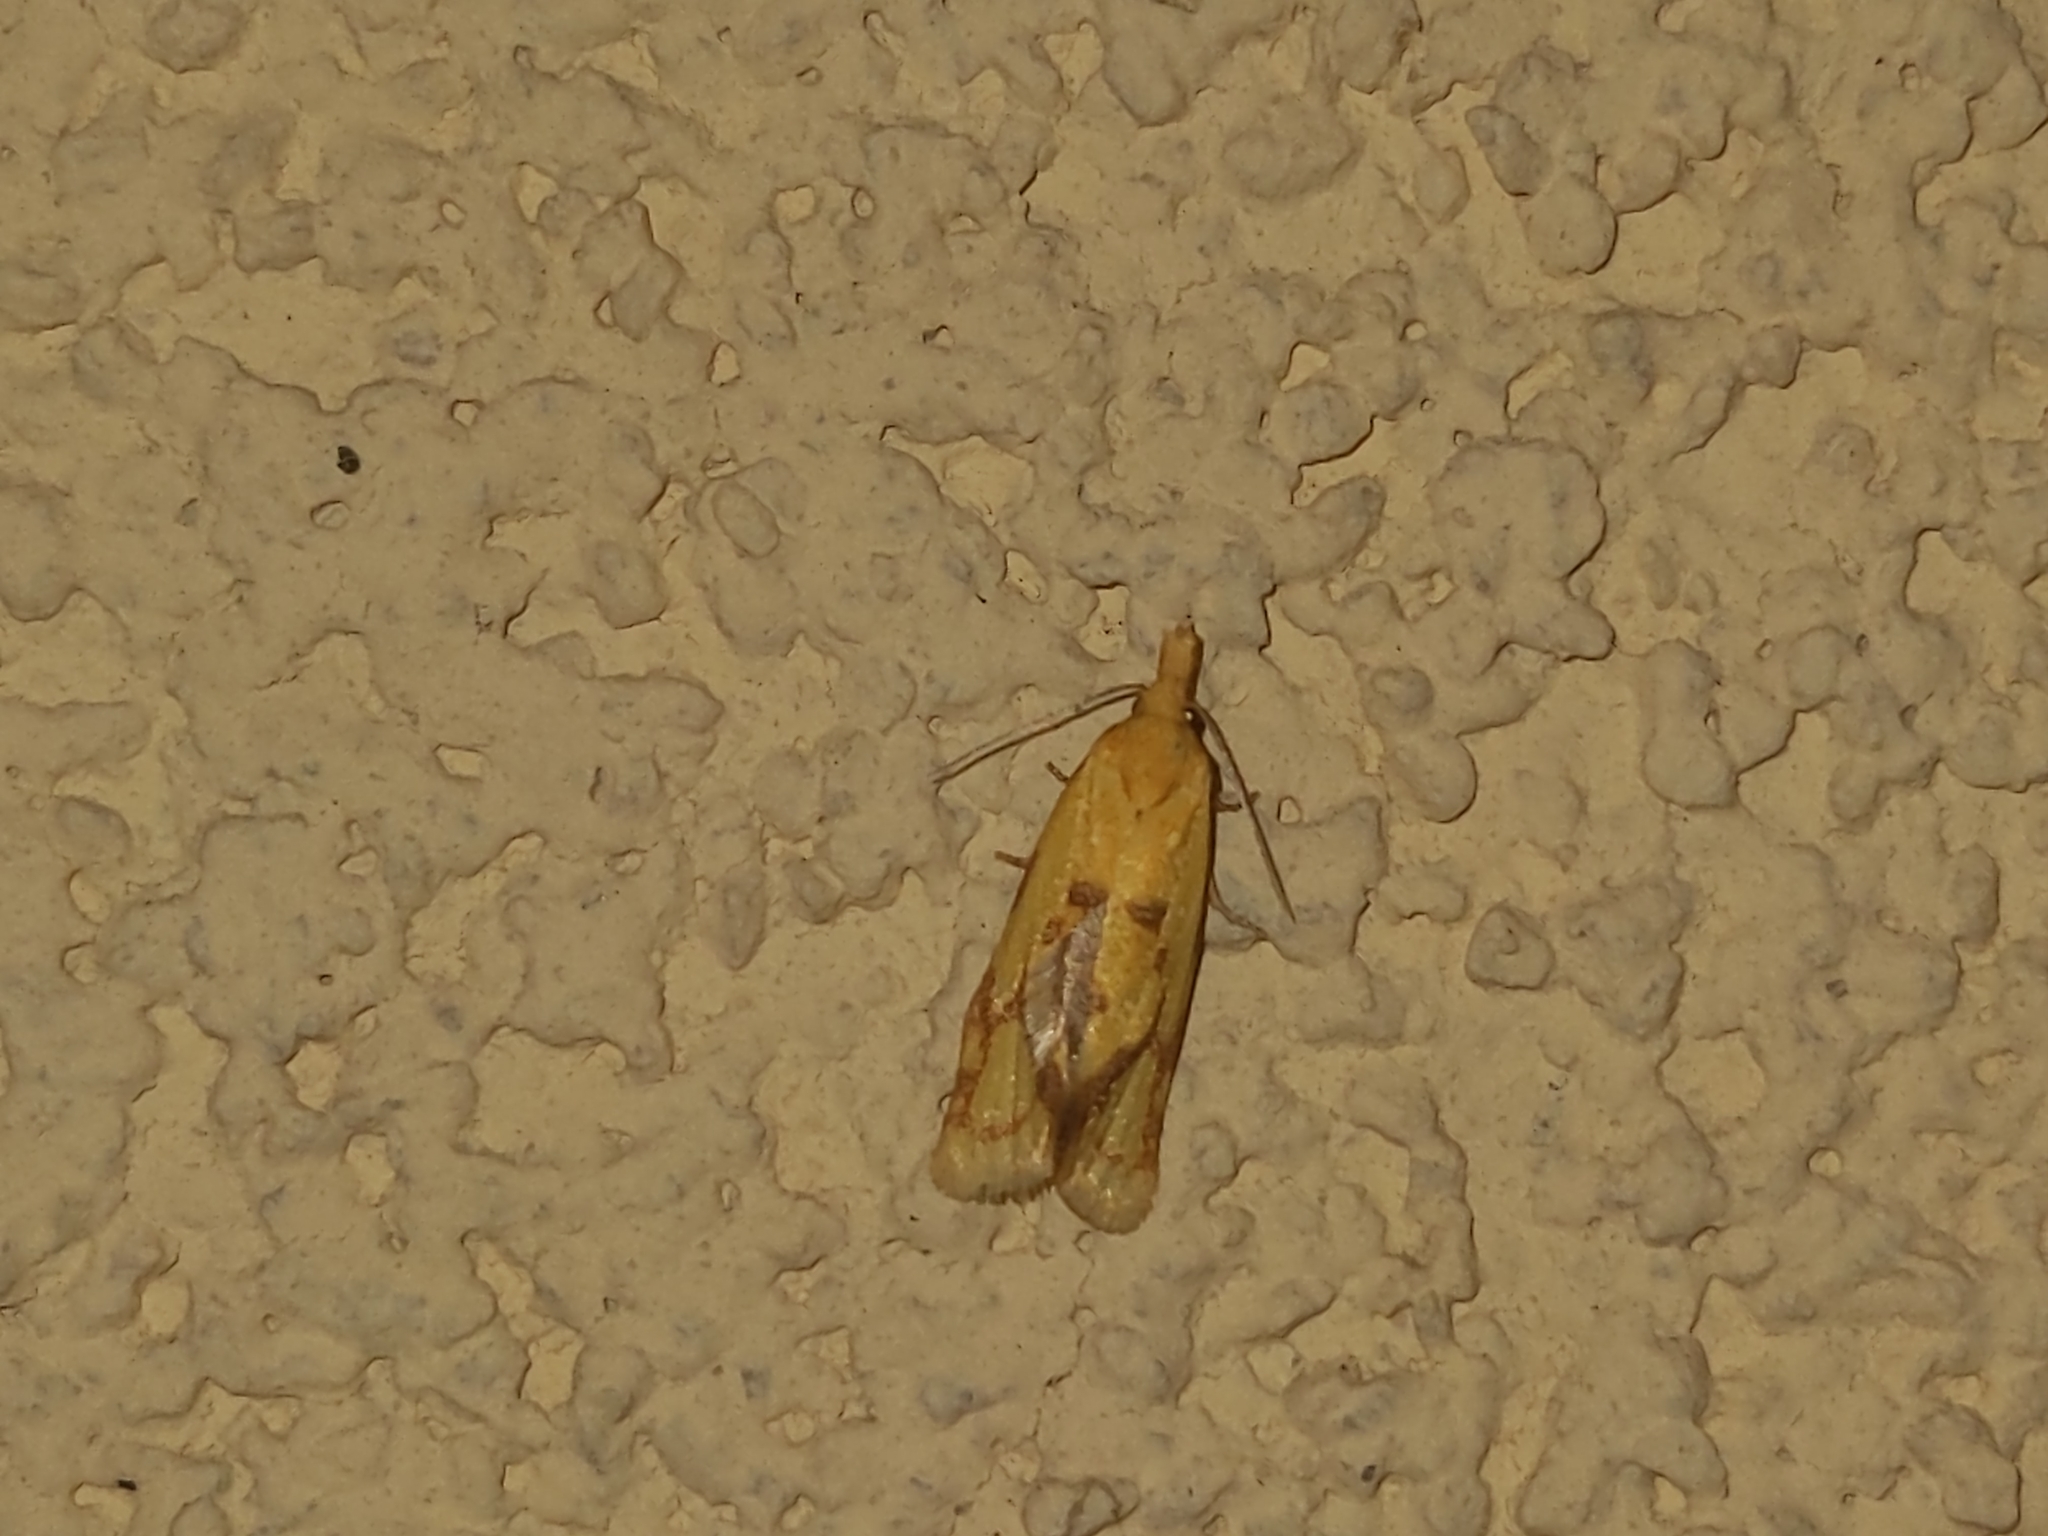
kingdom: Animalia
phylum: Arthropoda
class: Insecta
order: Lepidoptera
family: Tortricidae
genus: Agapeta
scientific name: Agapeta hamana
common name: Common yellow conch
